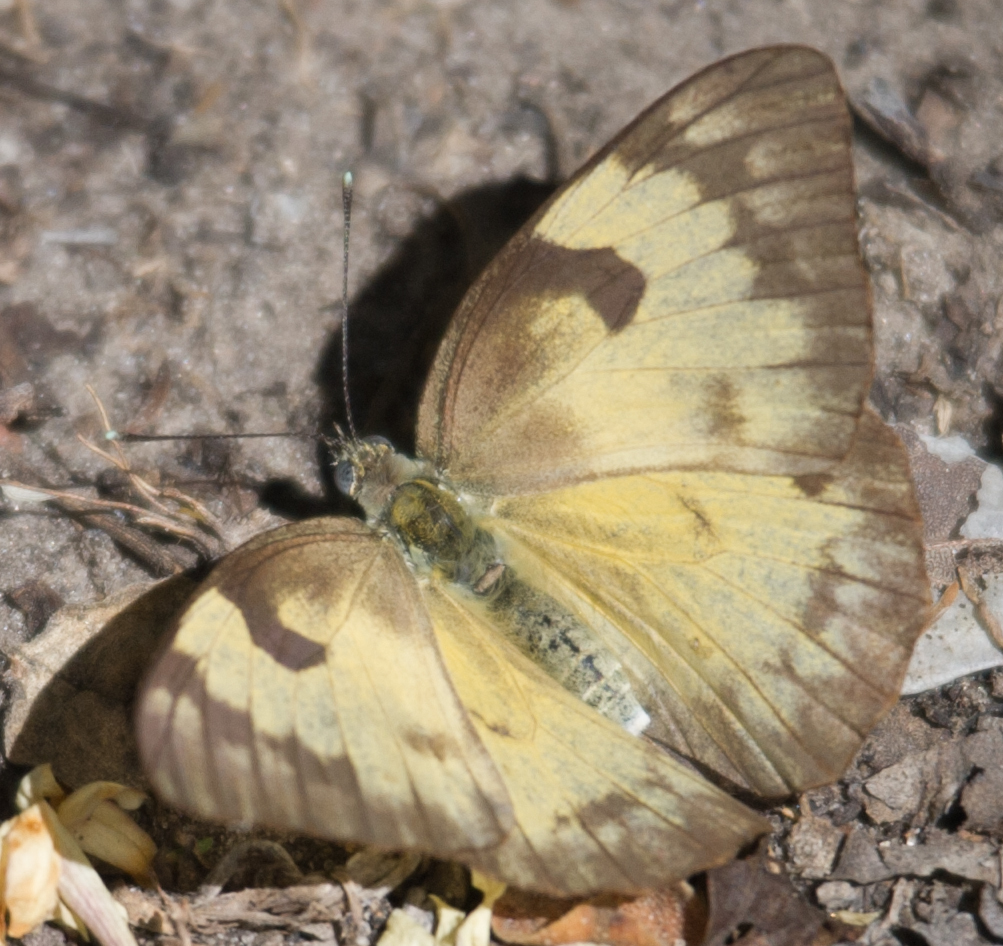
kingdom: Animalia
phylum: Arthropoda
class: Insecta
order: Lepidoptera
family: Pieridae
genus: Belenois
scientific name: Belenois gidica
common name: Pointed caper white
